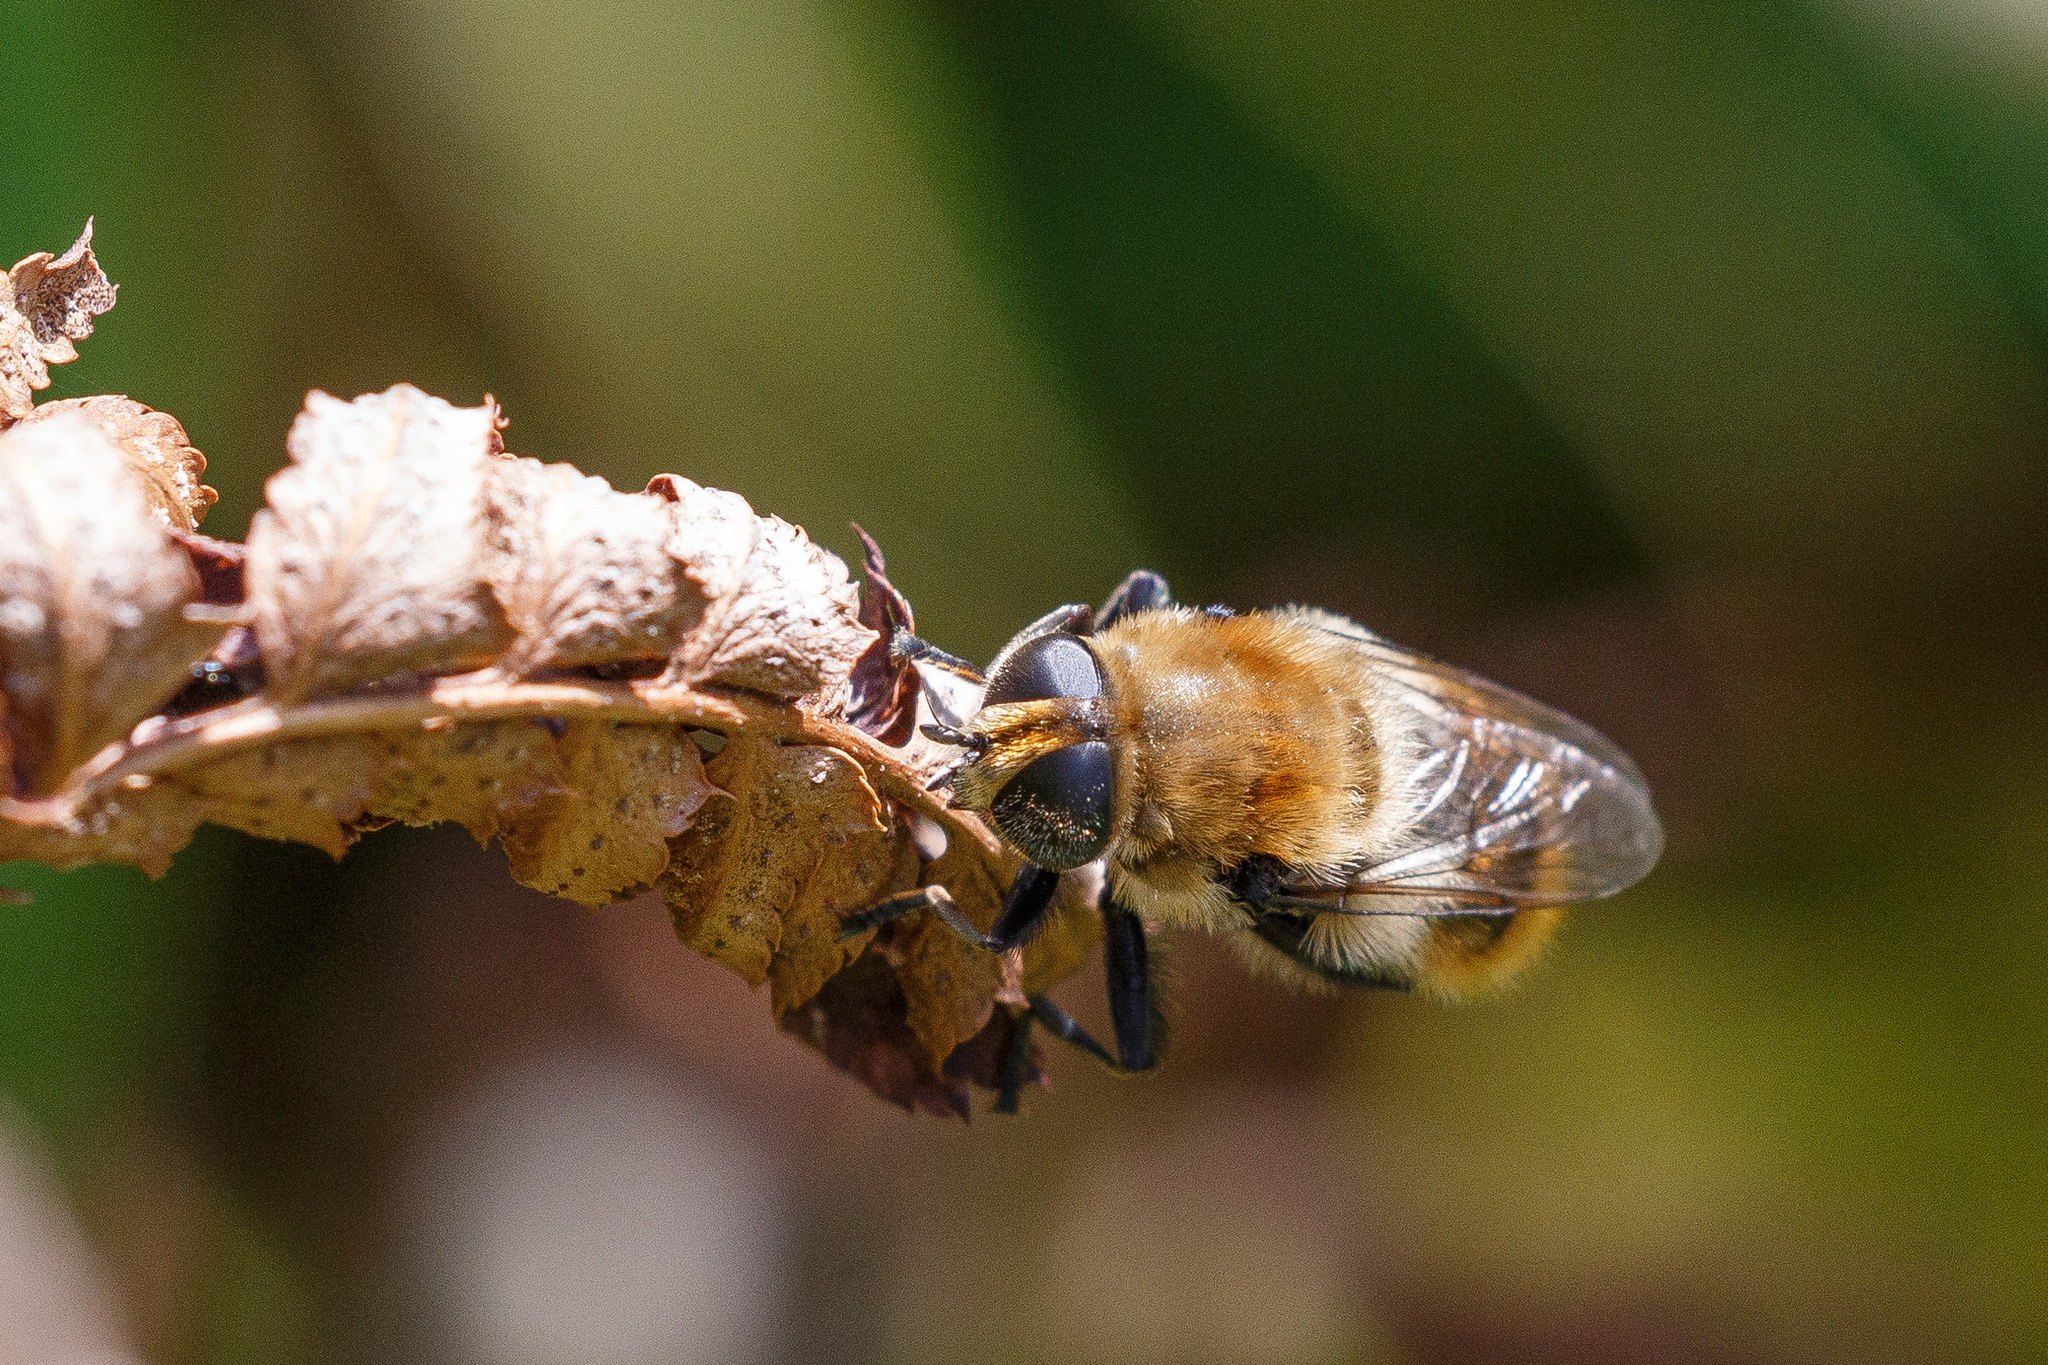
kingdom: Animalia
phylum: Arthropoda
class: Insecta
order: Diptera
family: Syrphidae
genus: Merodon
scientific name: Merodon equestris
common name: Greater bulb-fly
